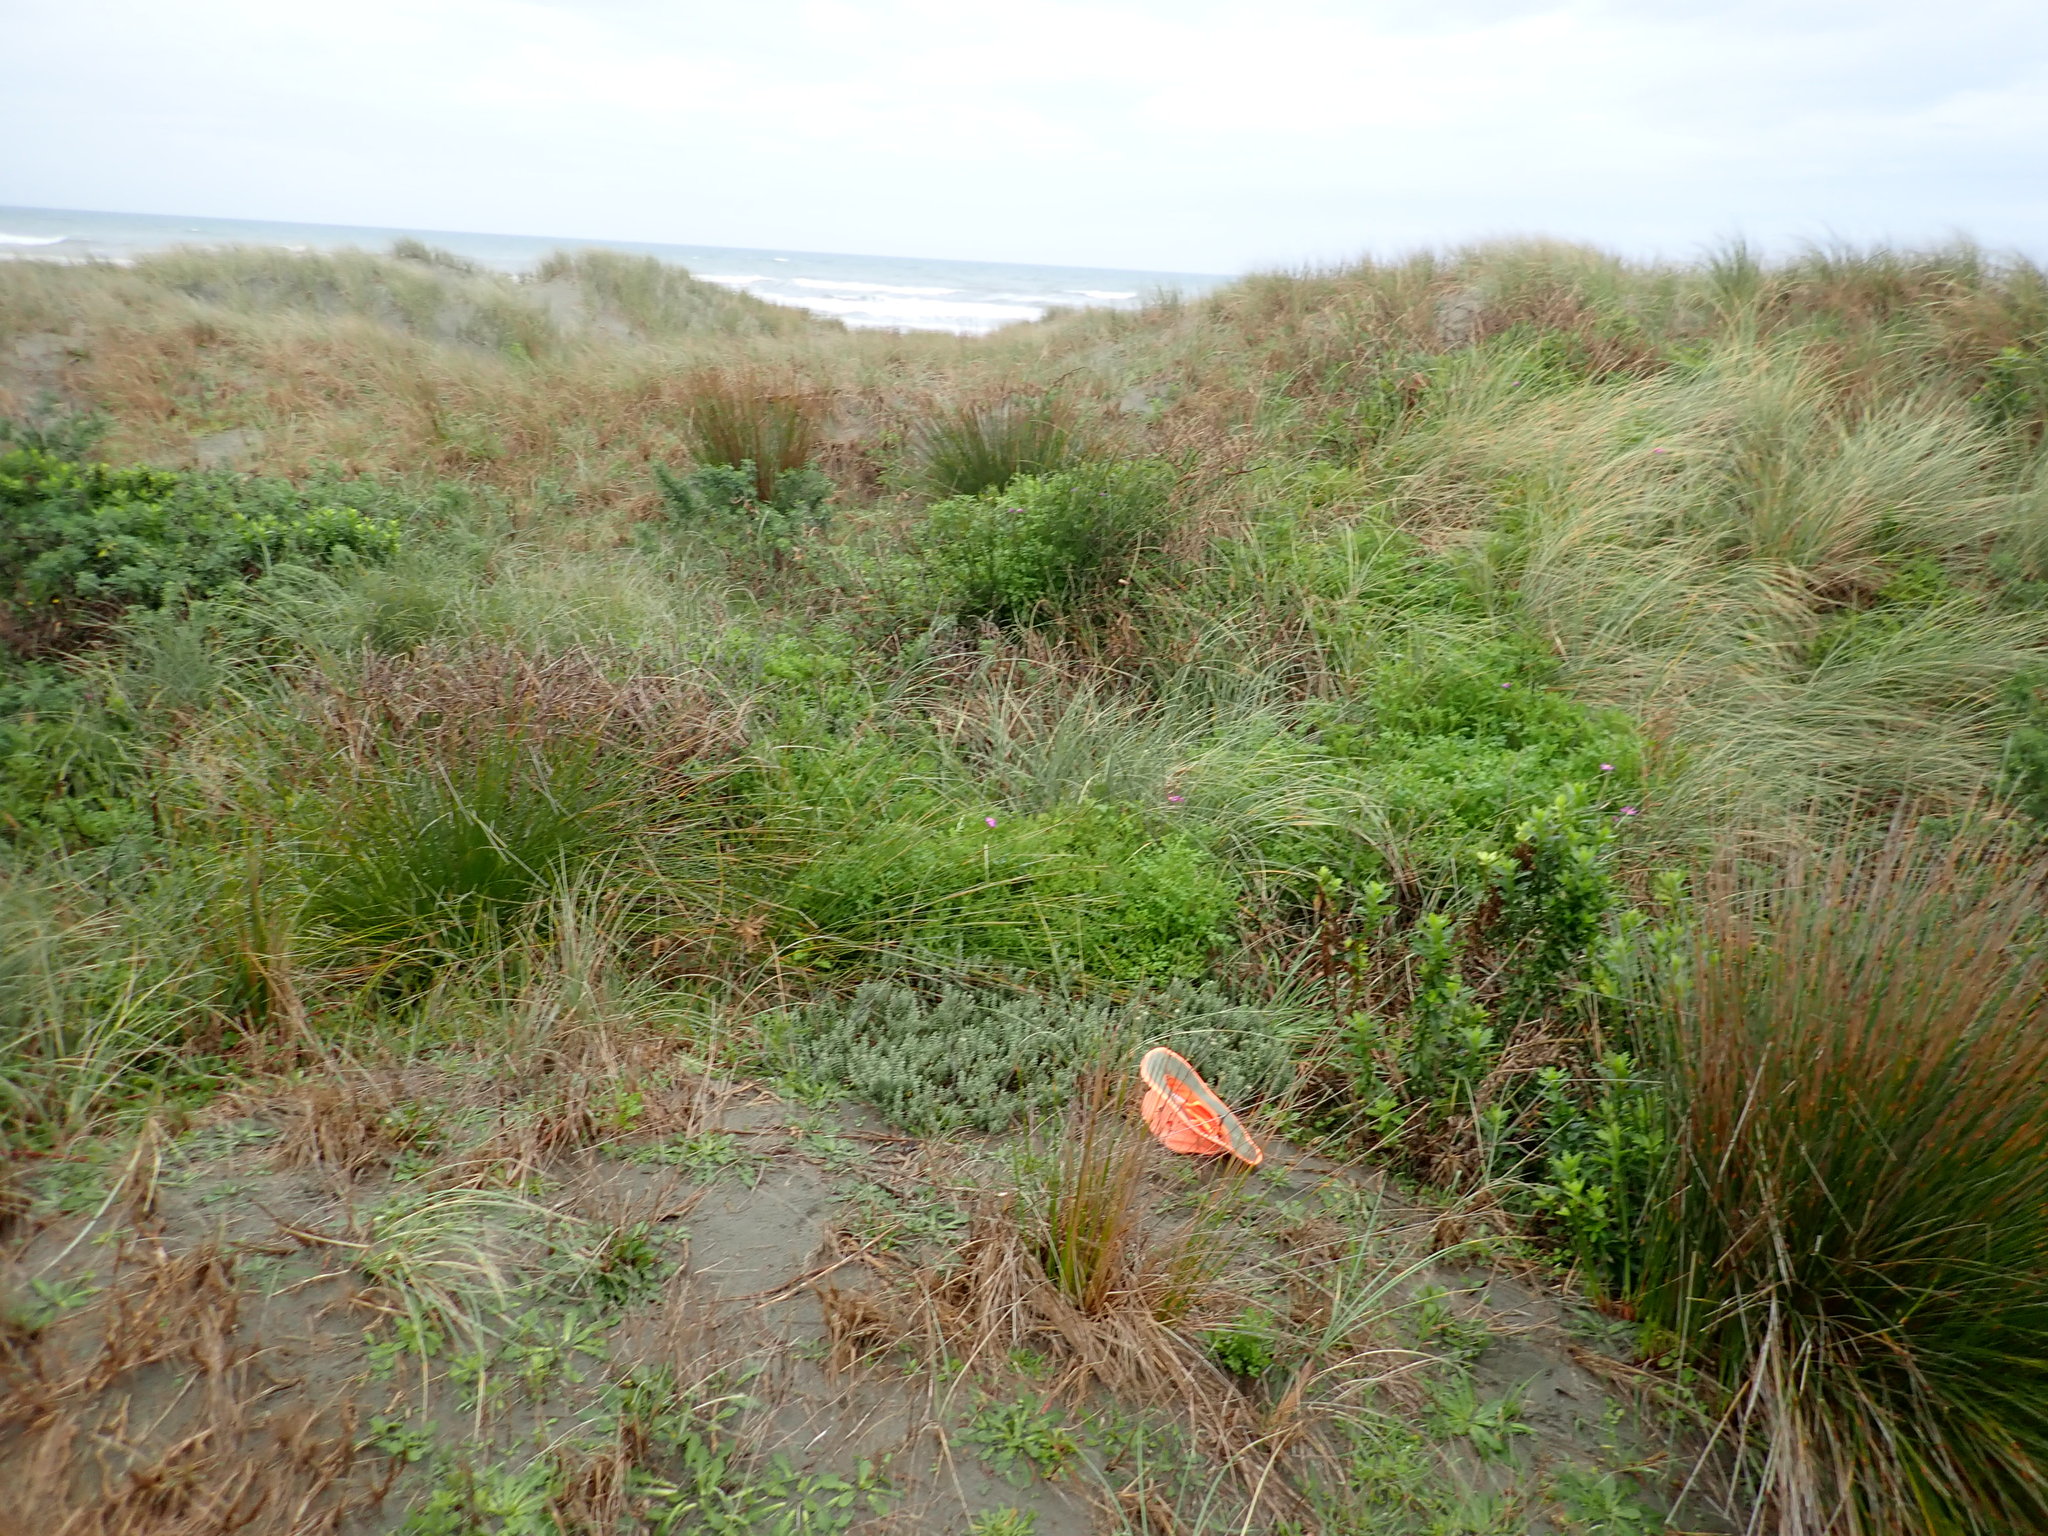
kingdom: Plantae
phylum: Tracheophyta
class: Magnoliopsida
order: Malvales
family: Thymelaeaceae
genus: Pimelea
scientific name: Pimelea villosa
